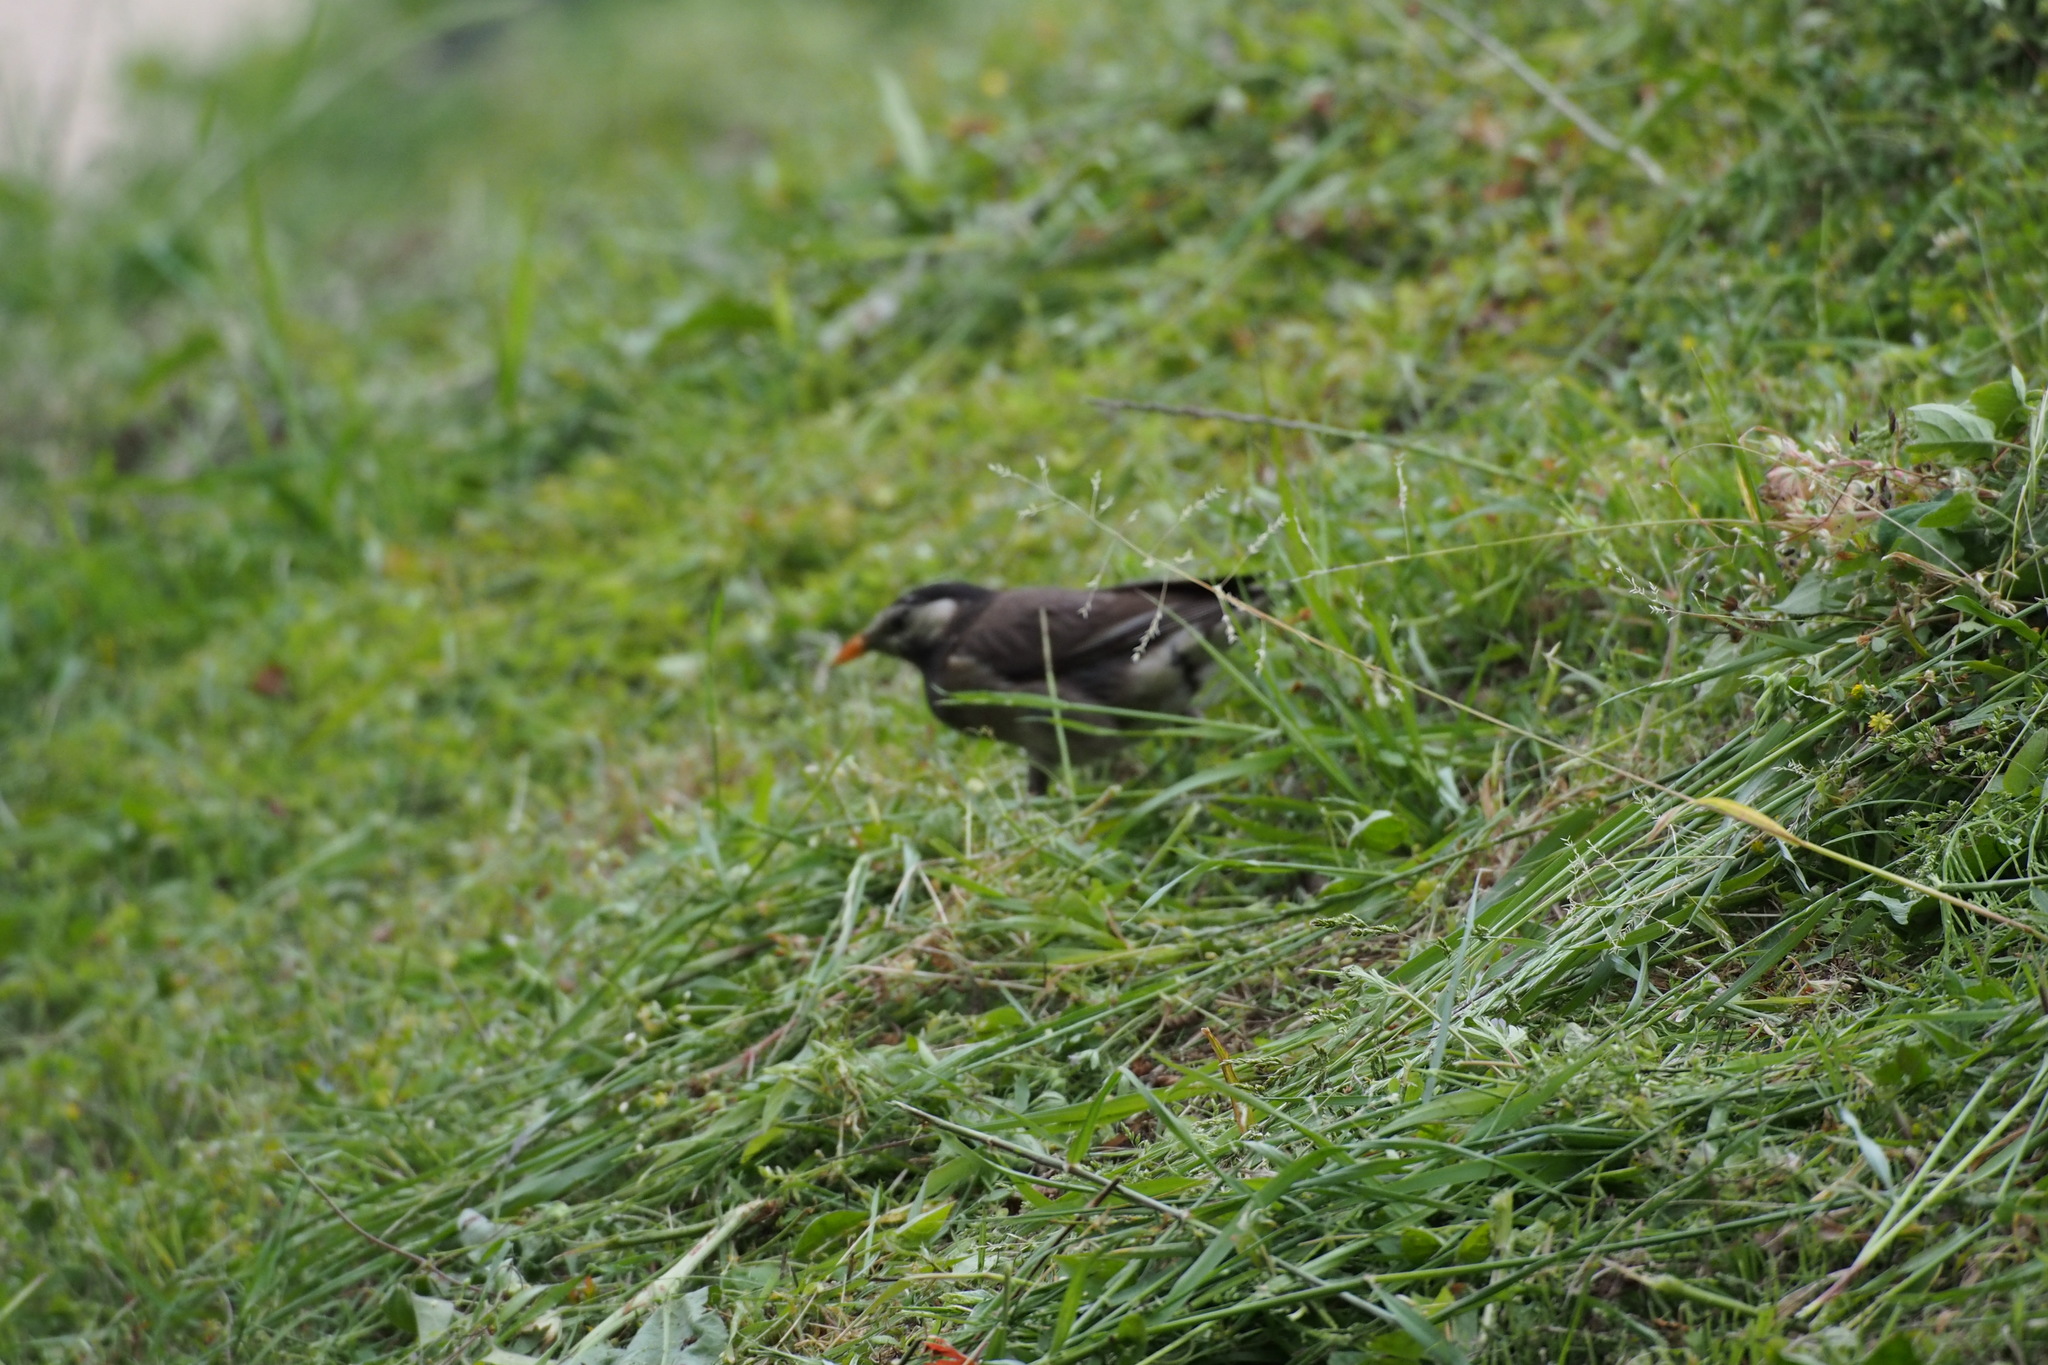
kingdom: Animalia
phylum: Chordata
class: Aves
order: Passeriformes
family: Sturnidae
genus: Spodiopsar
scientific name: Spodiopsar cineraceus
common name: White-cheeked starling
